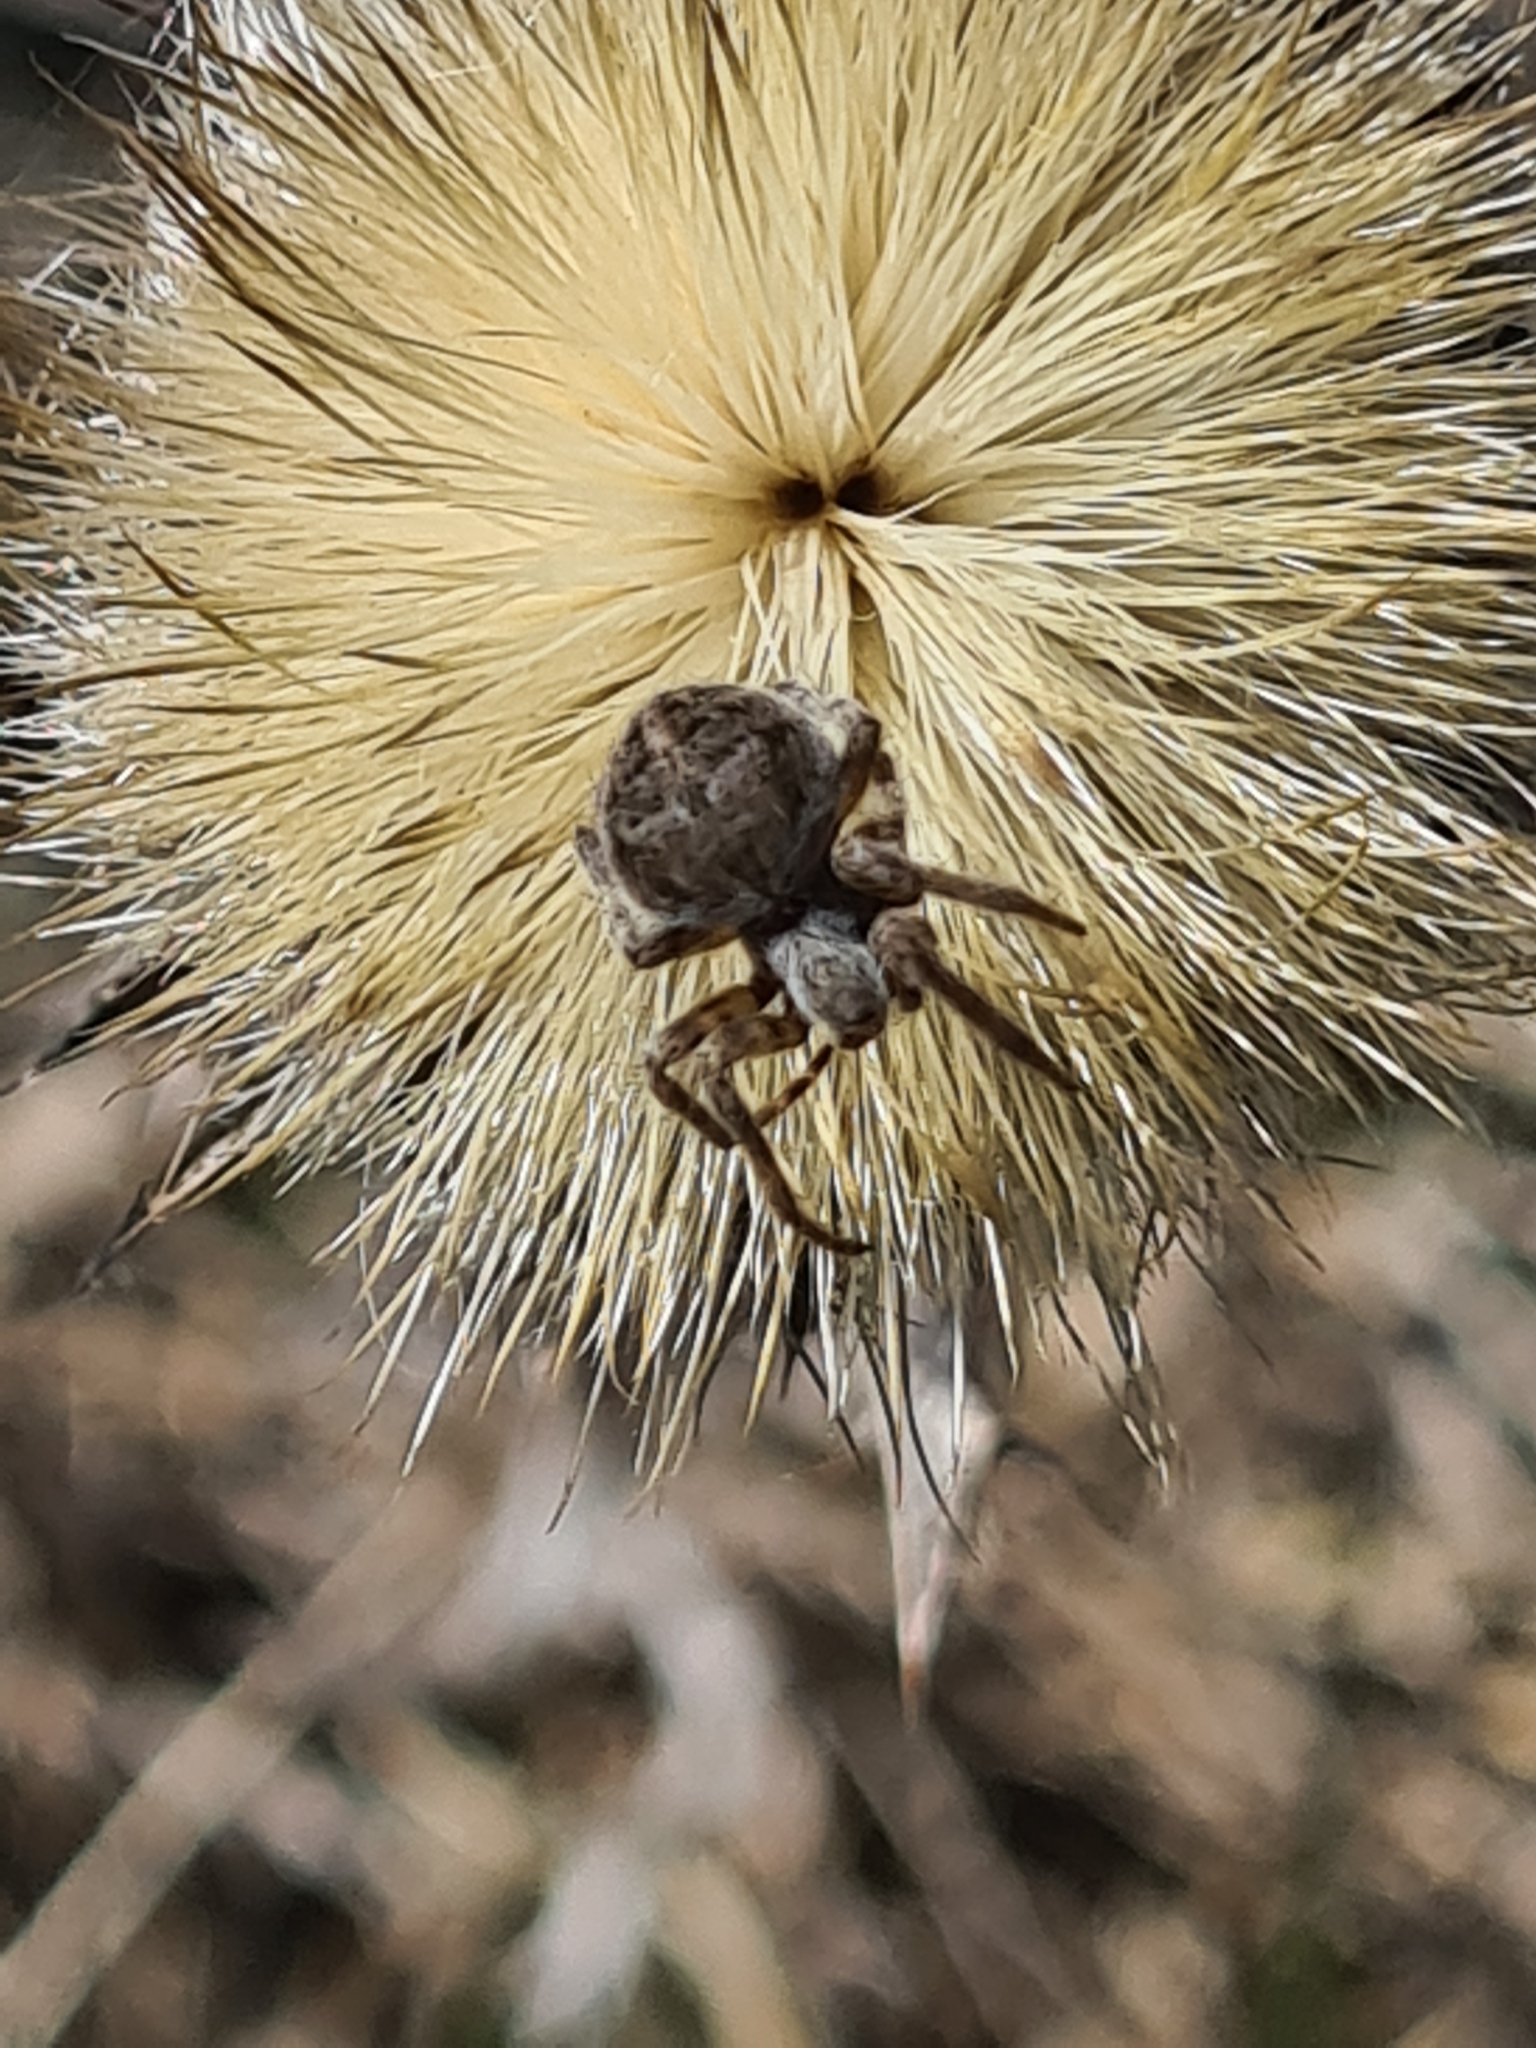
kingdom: Animalia
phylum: Arthropoda
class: Arachnida
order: Araneae
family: Araneidae
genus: Agalenatea
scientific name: Agalenatea redii
